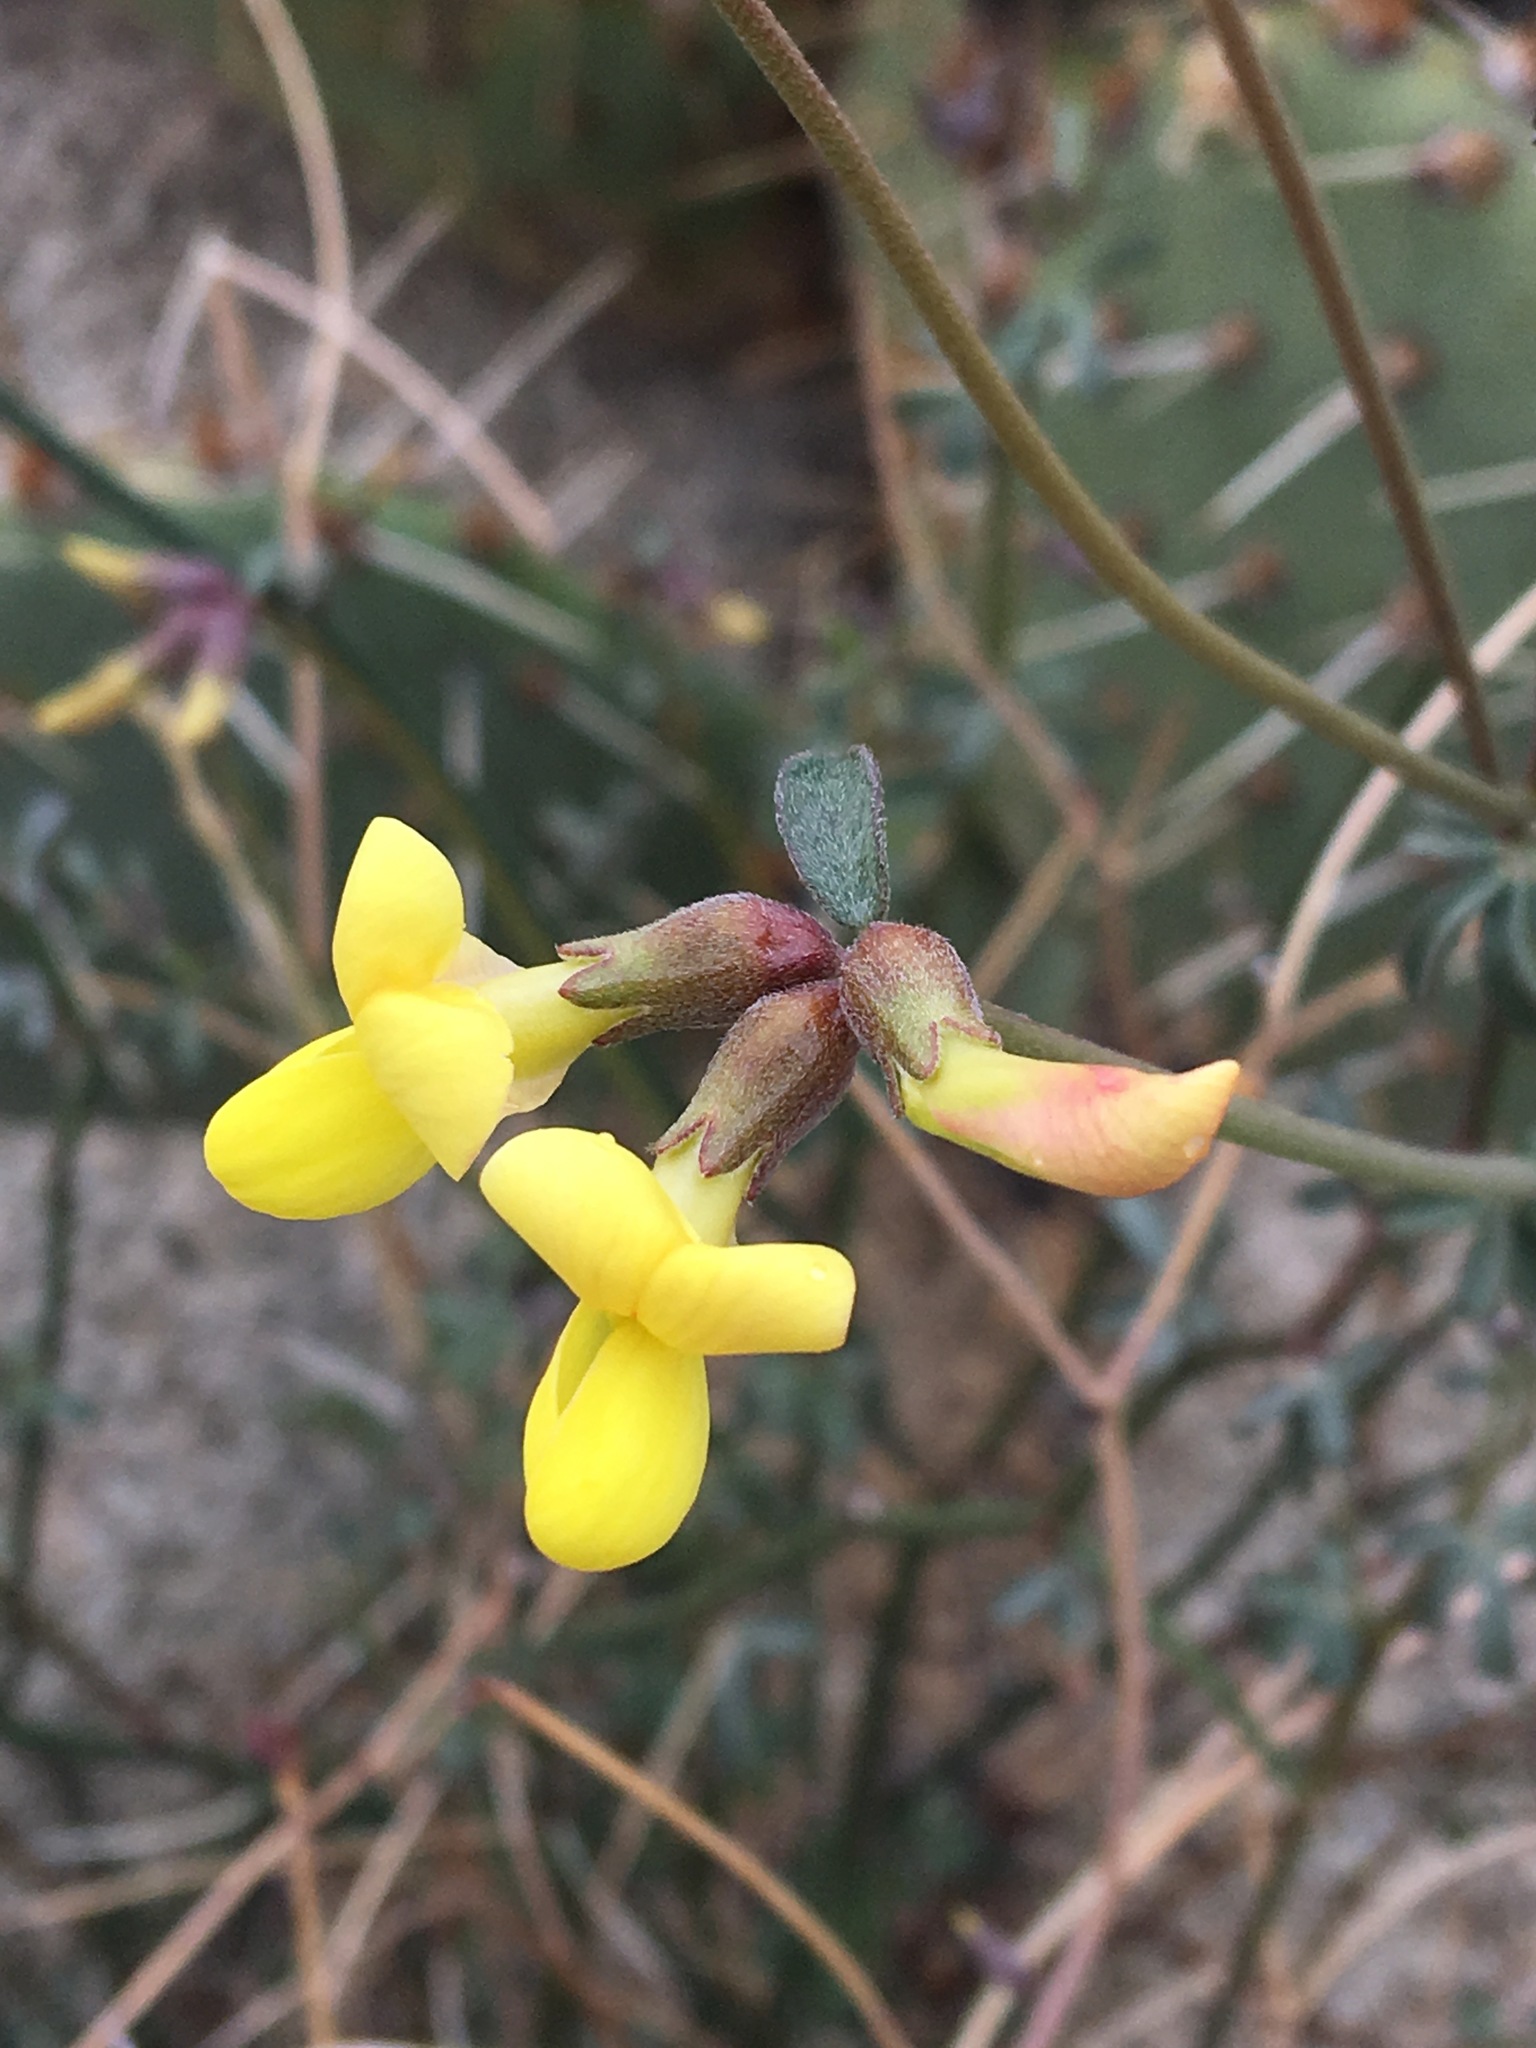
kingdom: Plantae
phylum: Tracheophyta
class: Magnoliopsida
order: Fabales
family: Fabaceae
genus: Acmispon
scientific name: Acmispon rigidus
